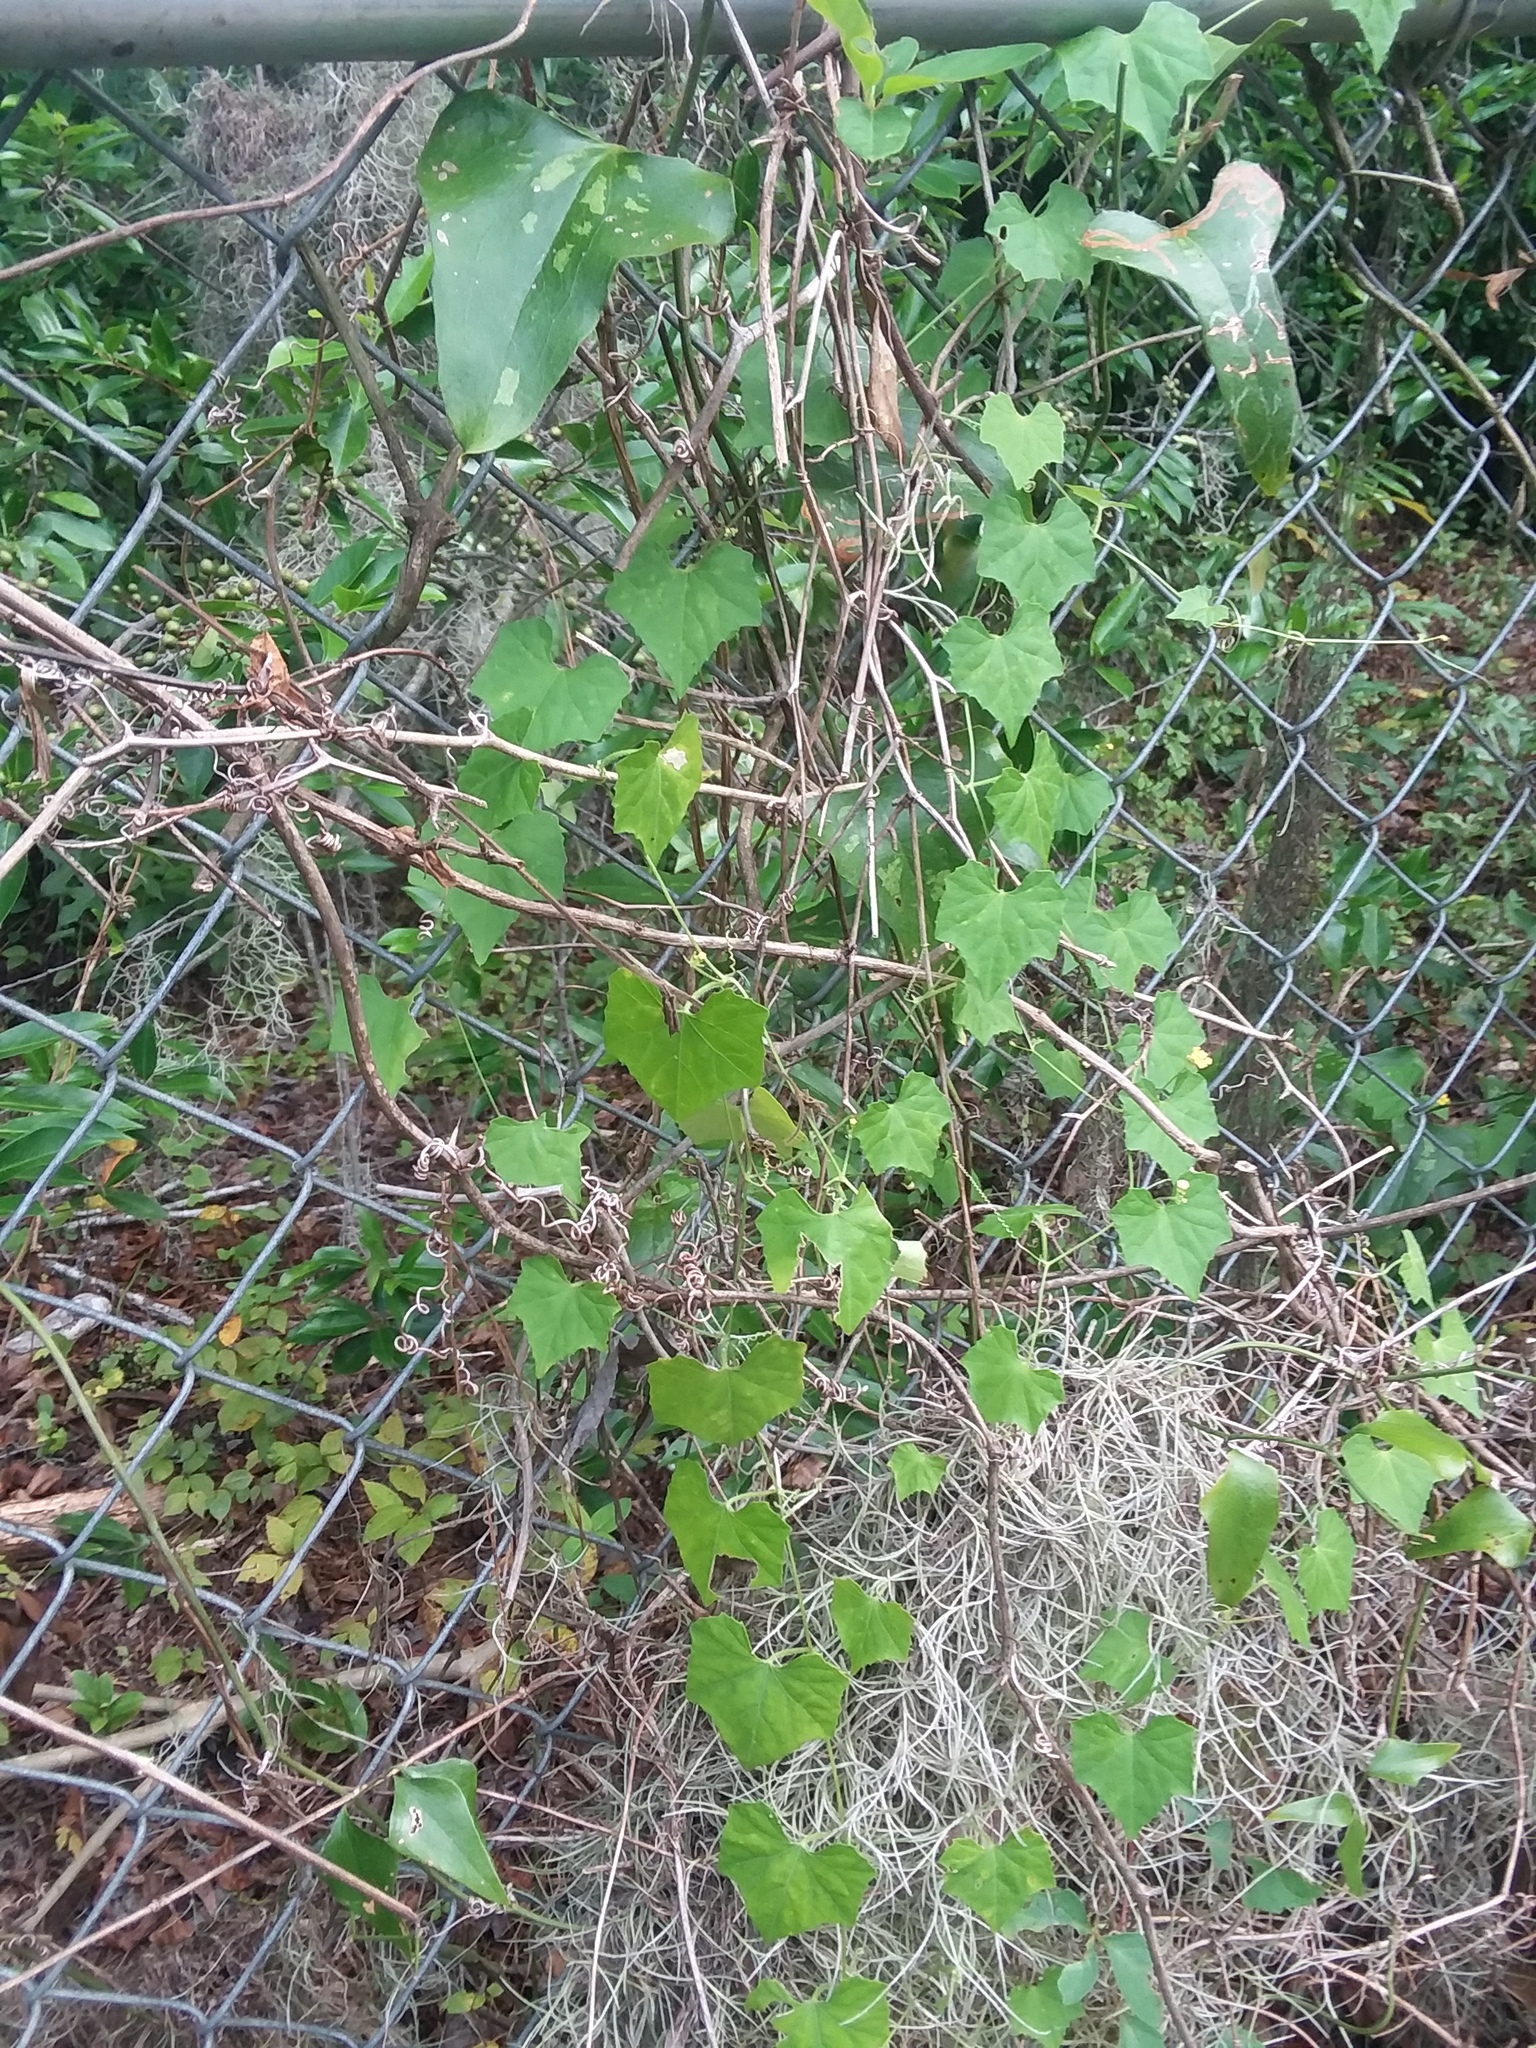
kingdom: Plantae
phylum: Tracheophyta
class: Magnoliopsida
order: Cucurbitales
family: Cucurbitaceae
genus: Melothria
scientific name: Melothria pendula
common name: Creeping-cucumber
